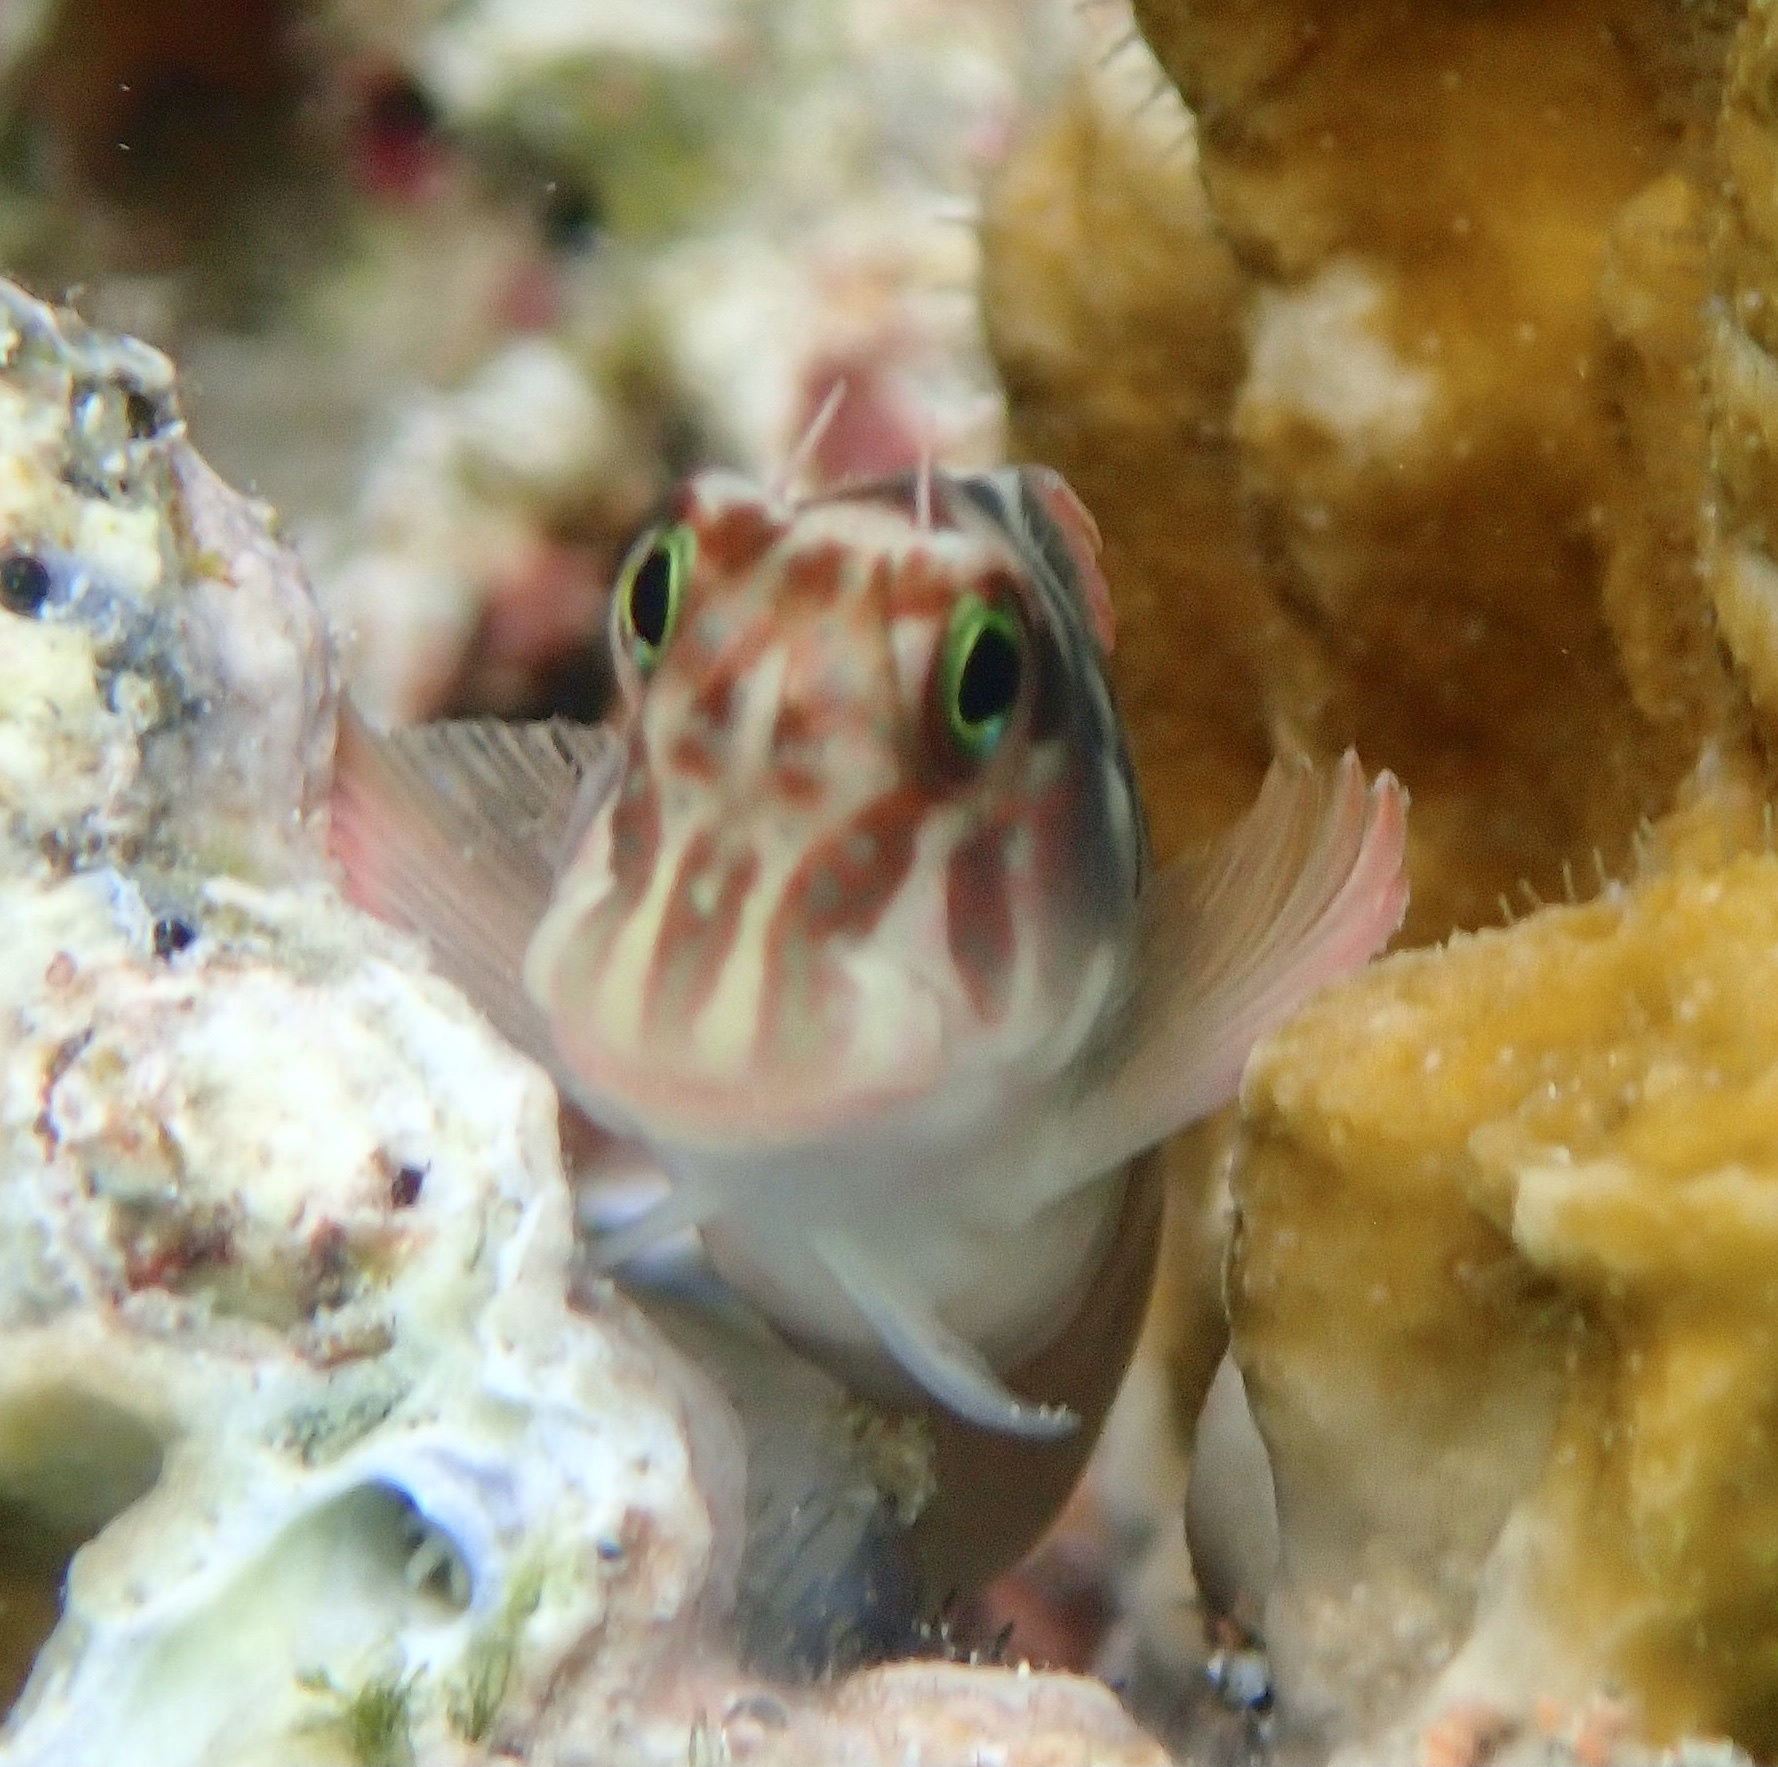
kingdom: Animalia
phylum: Chordata
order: Perciformes
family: Blenniidae
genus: Ophioblennius
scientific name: Ophioblennius macclurei
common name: Redlip blenny
